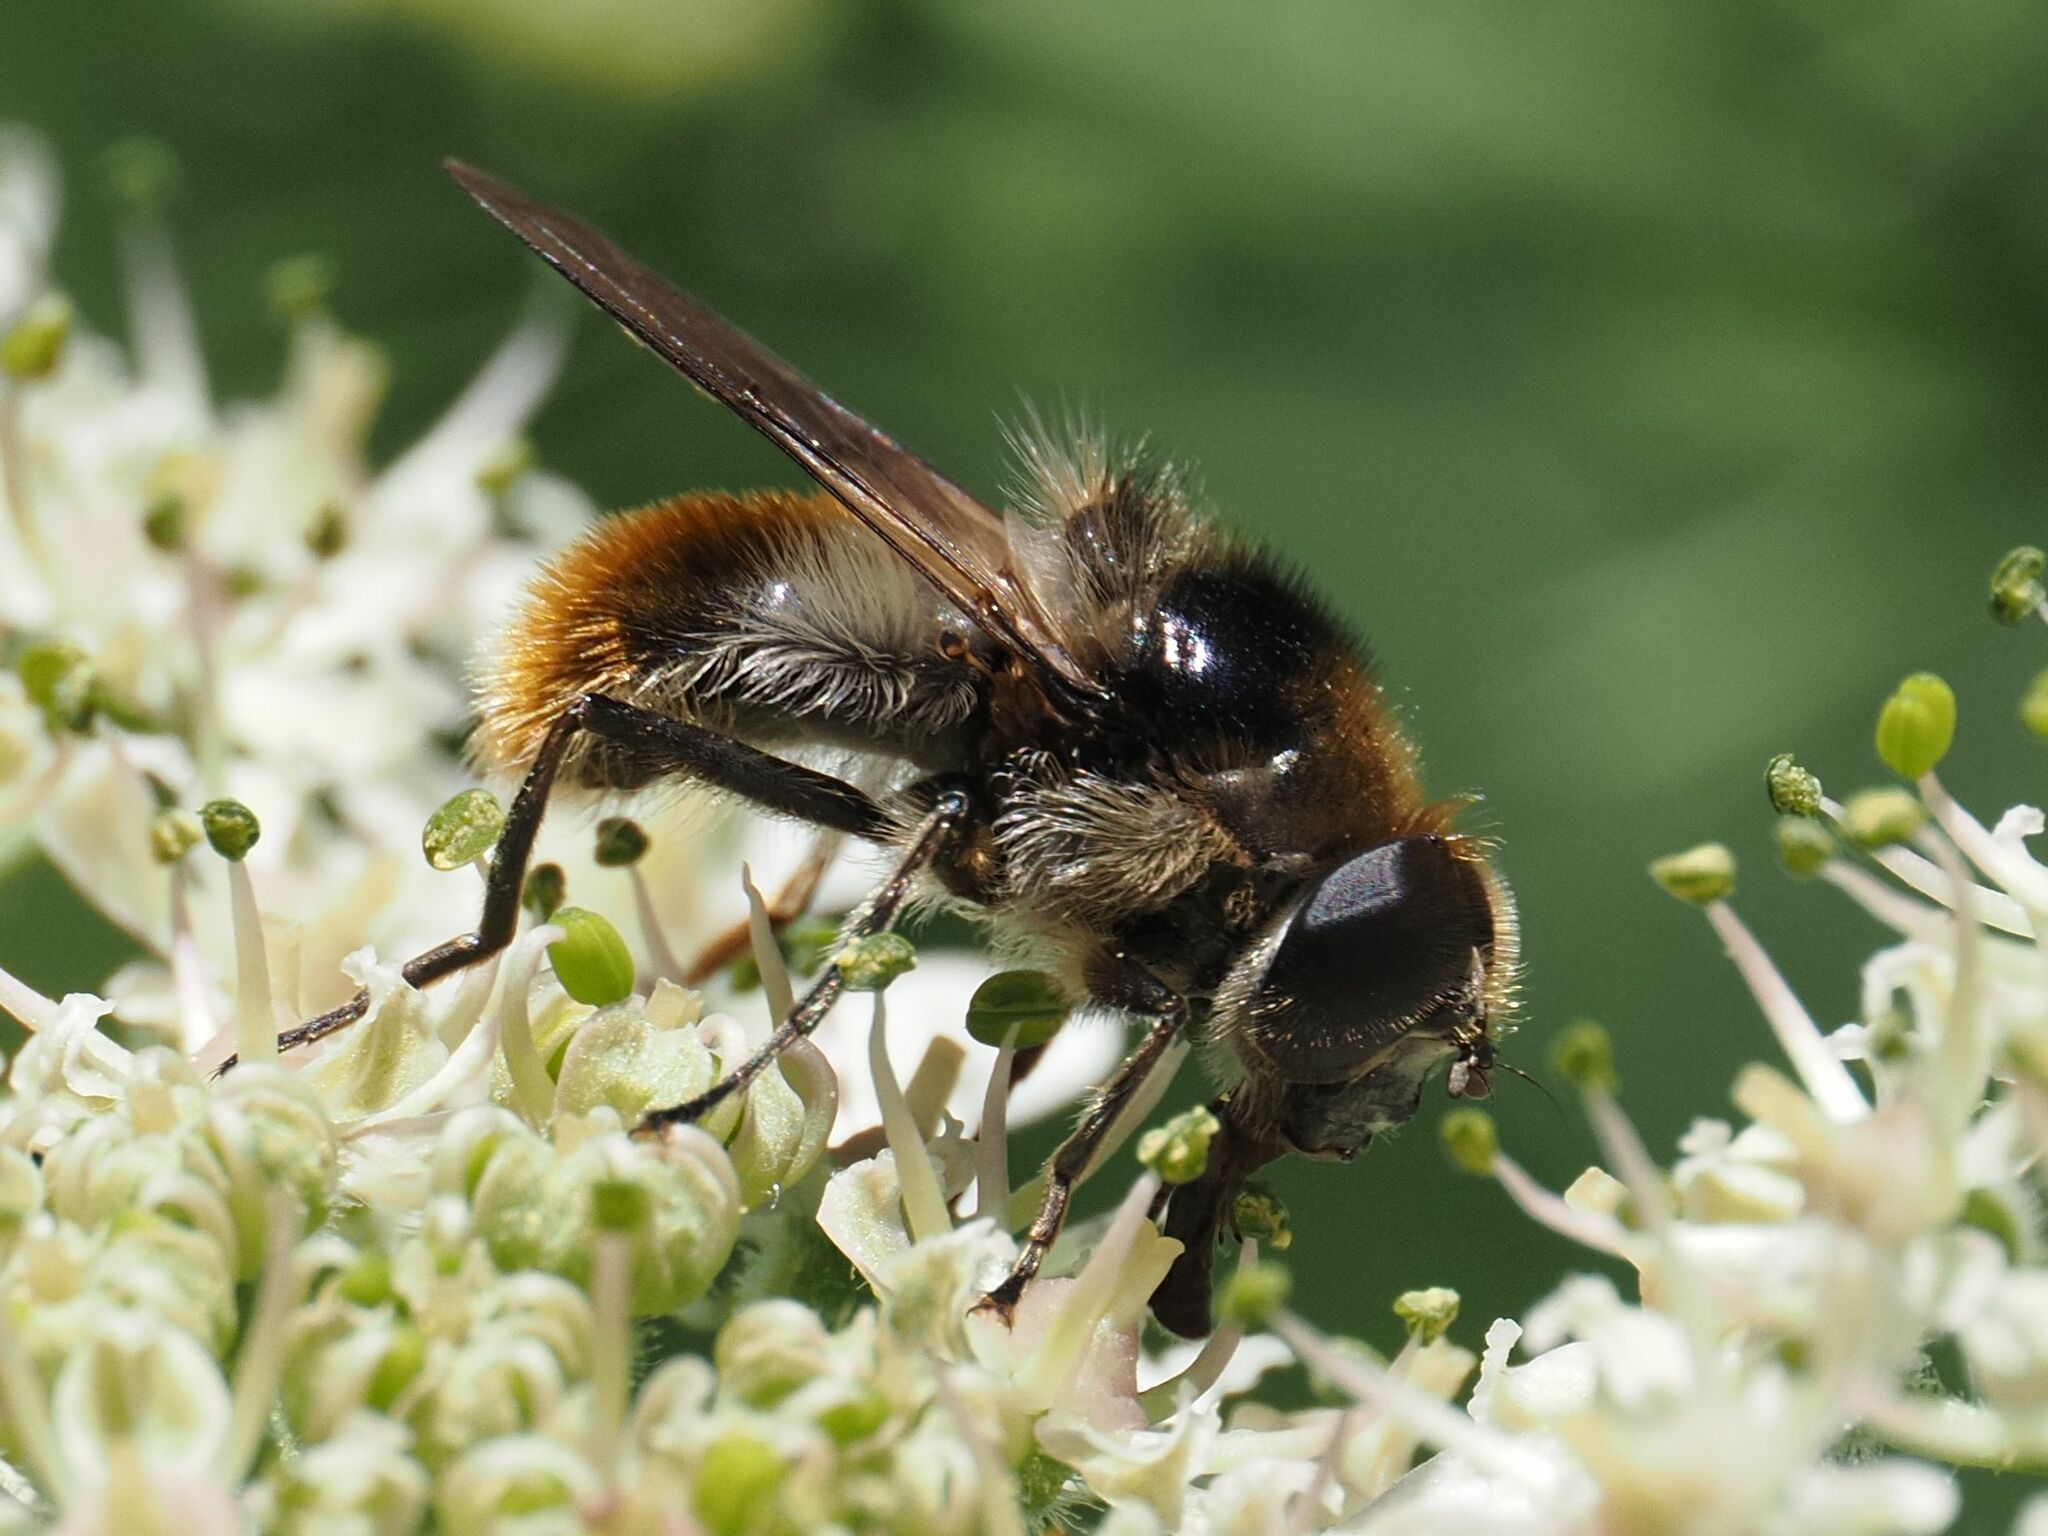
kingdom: Animalia
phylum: Arthropoda
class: Insecta
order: Diptera
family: Syrphidae
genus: Cheilosia
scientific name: Cheilosia illustrata
